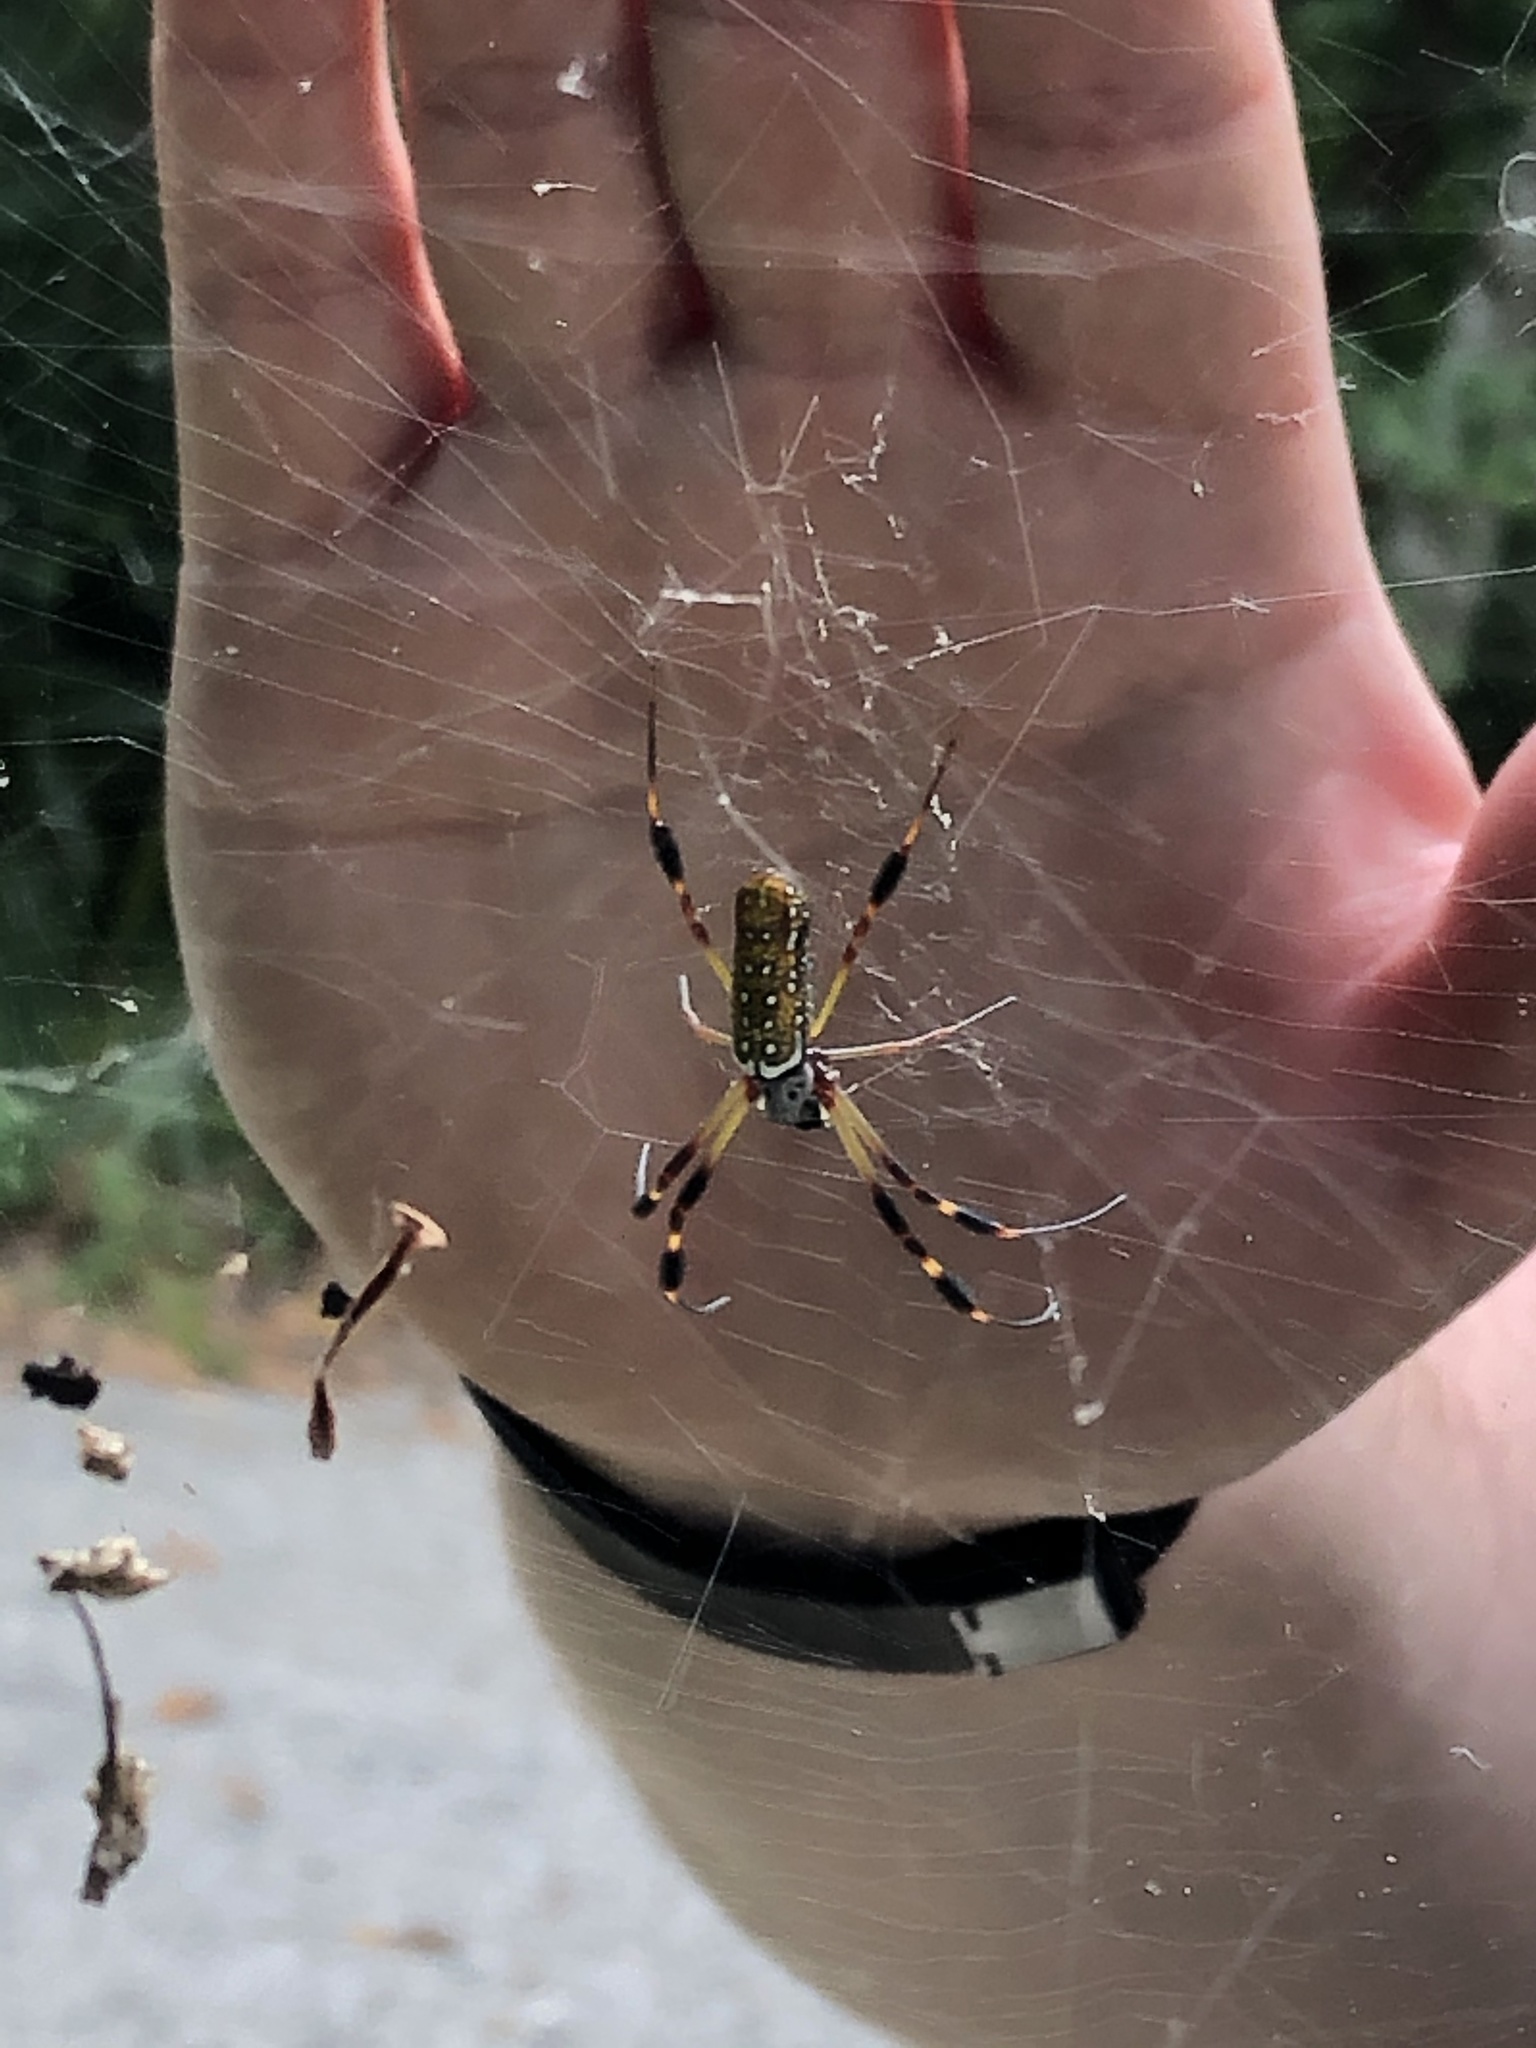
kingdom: Animalia
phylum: Arthropoda
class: Arachnida
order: Araneae
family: Araneidae
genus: Trichonephila
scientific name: Trichonephila clavipes
